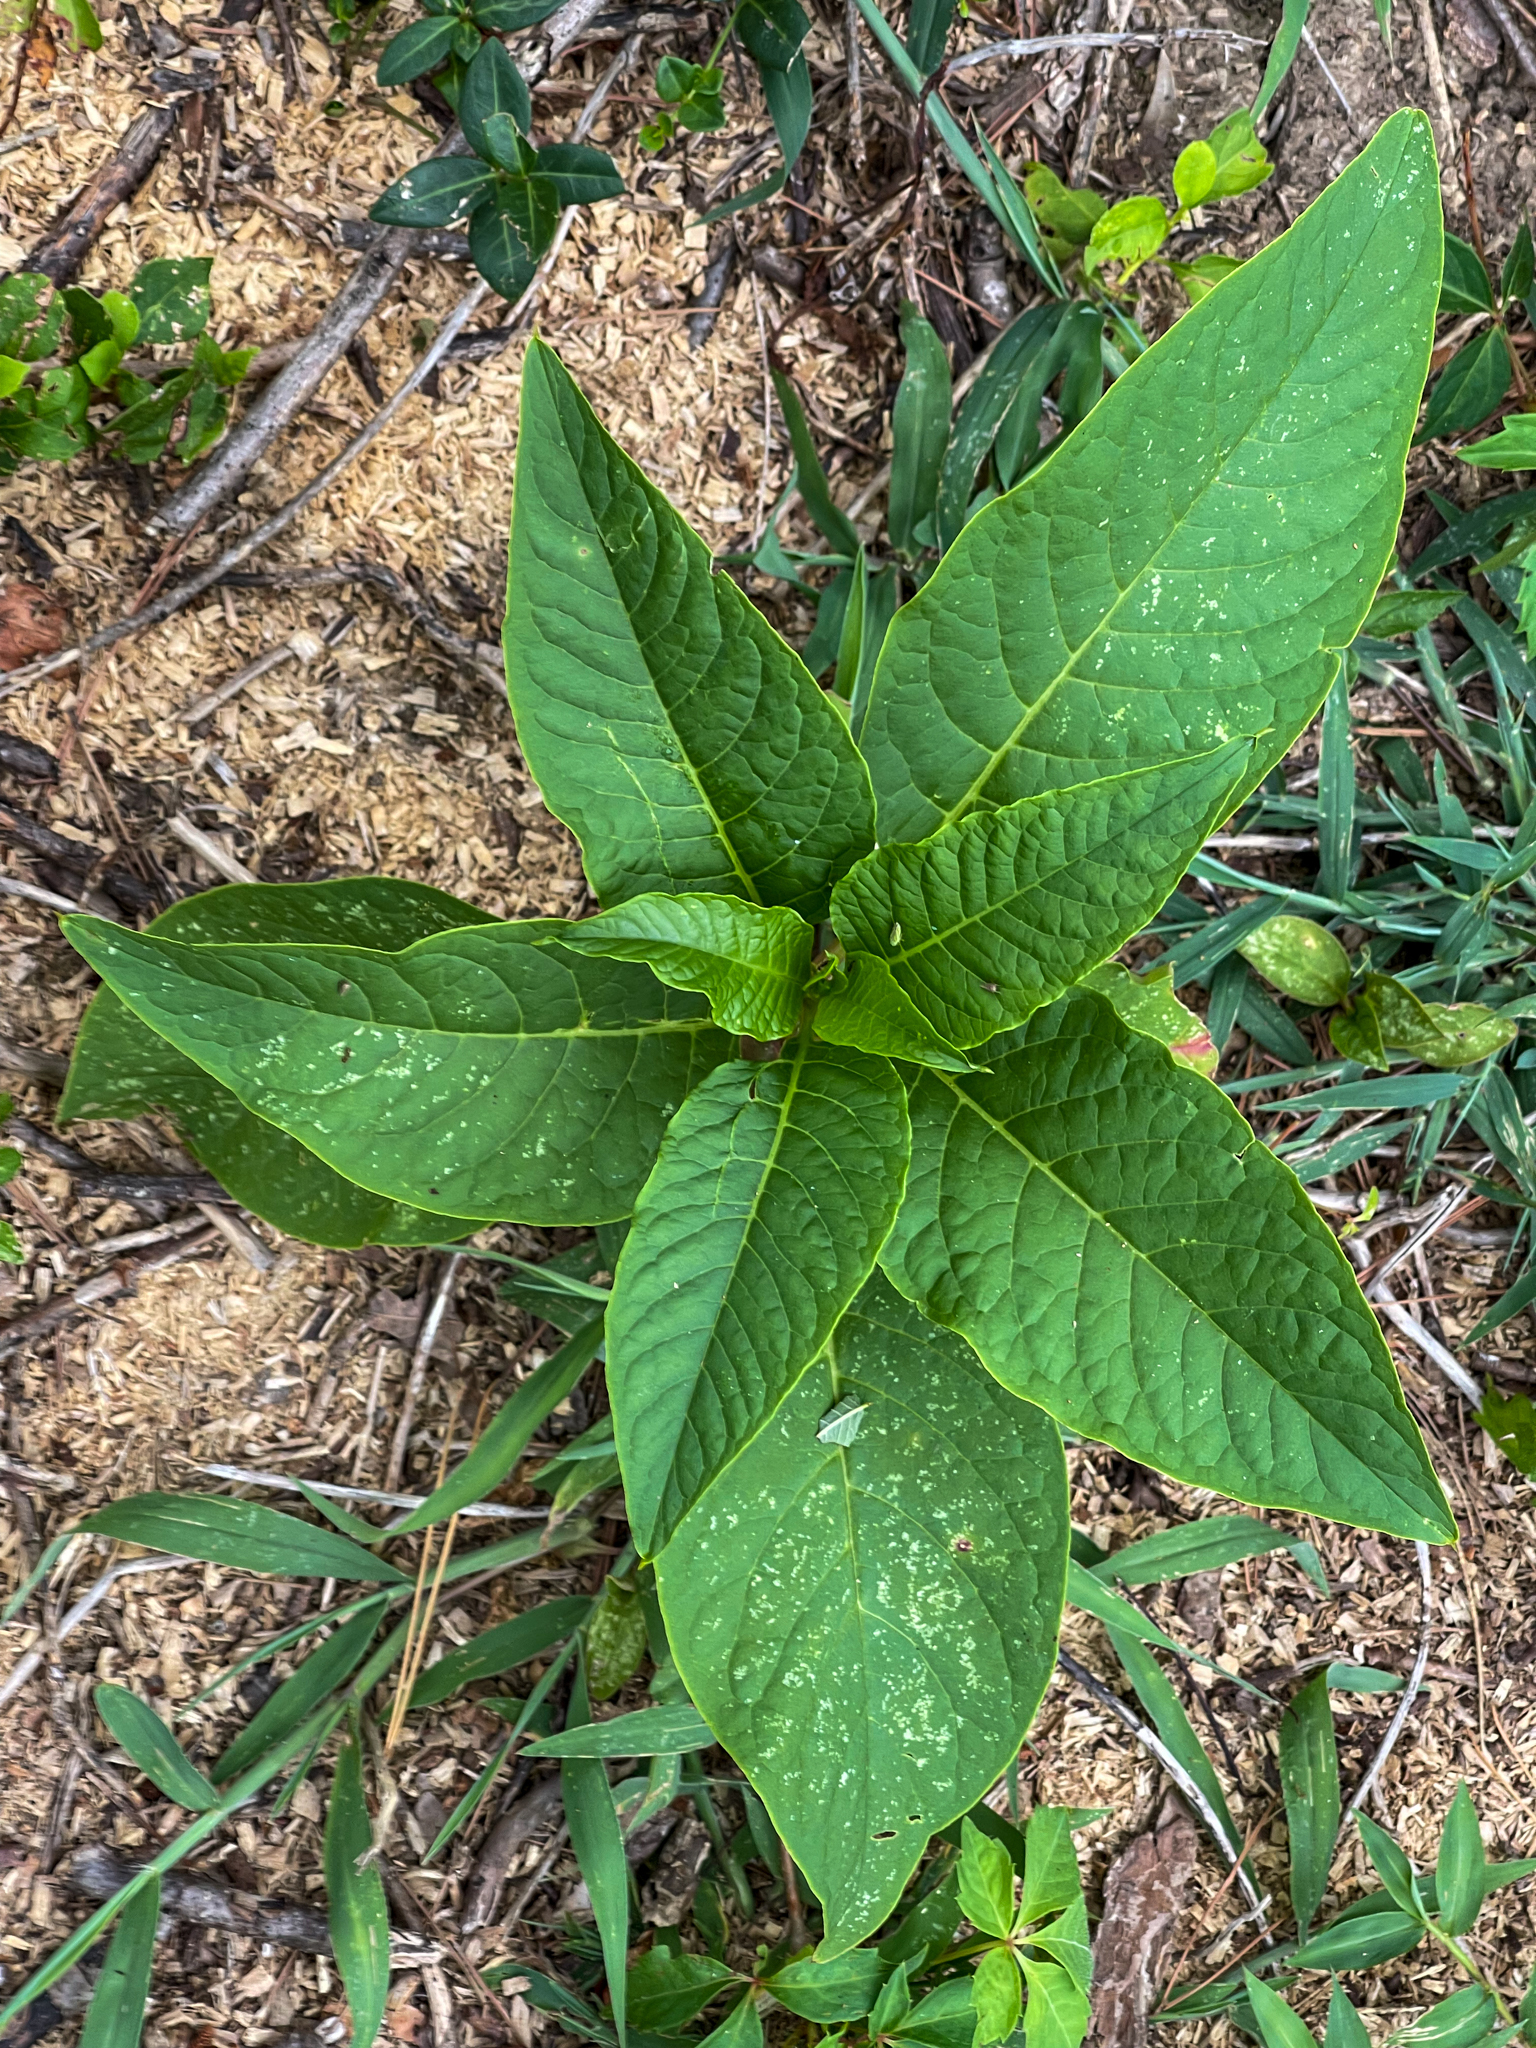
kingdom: Plantae
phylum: Tracheophyta
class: Magnoliopsida
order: Caryophyllales
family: Phytolaccaceae
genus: Phytolacca
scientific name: Phytolacca americana
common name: American pokeweed
